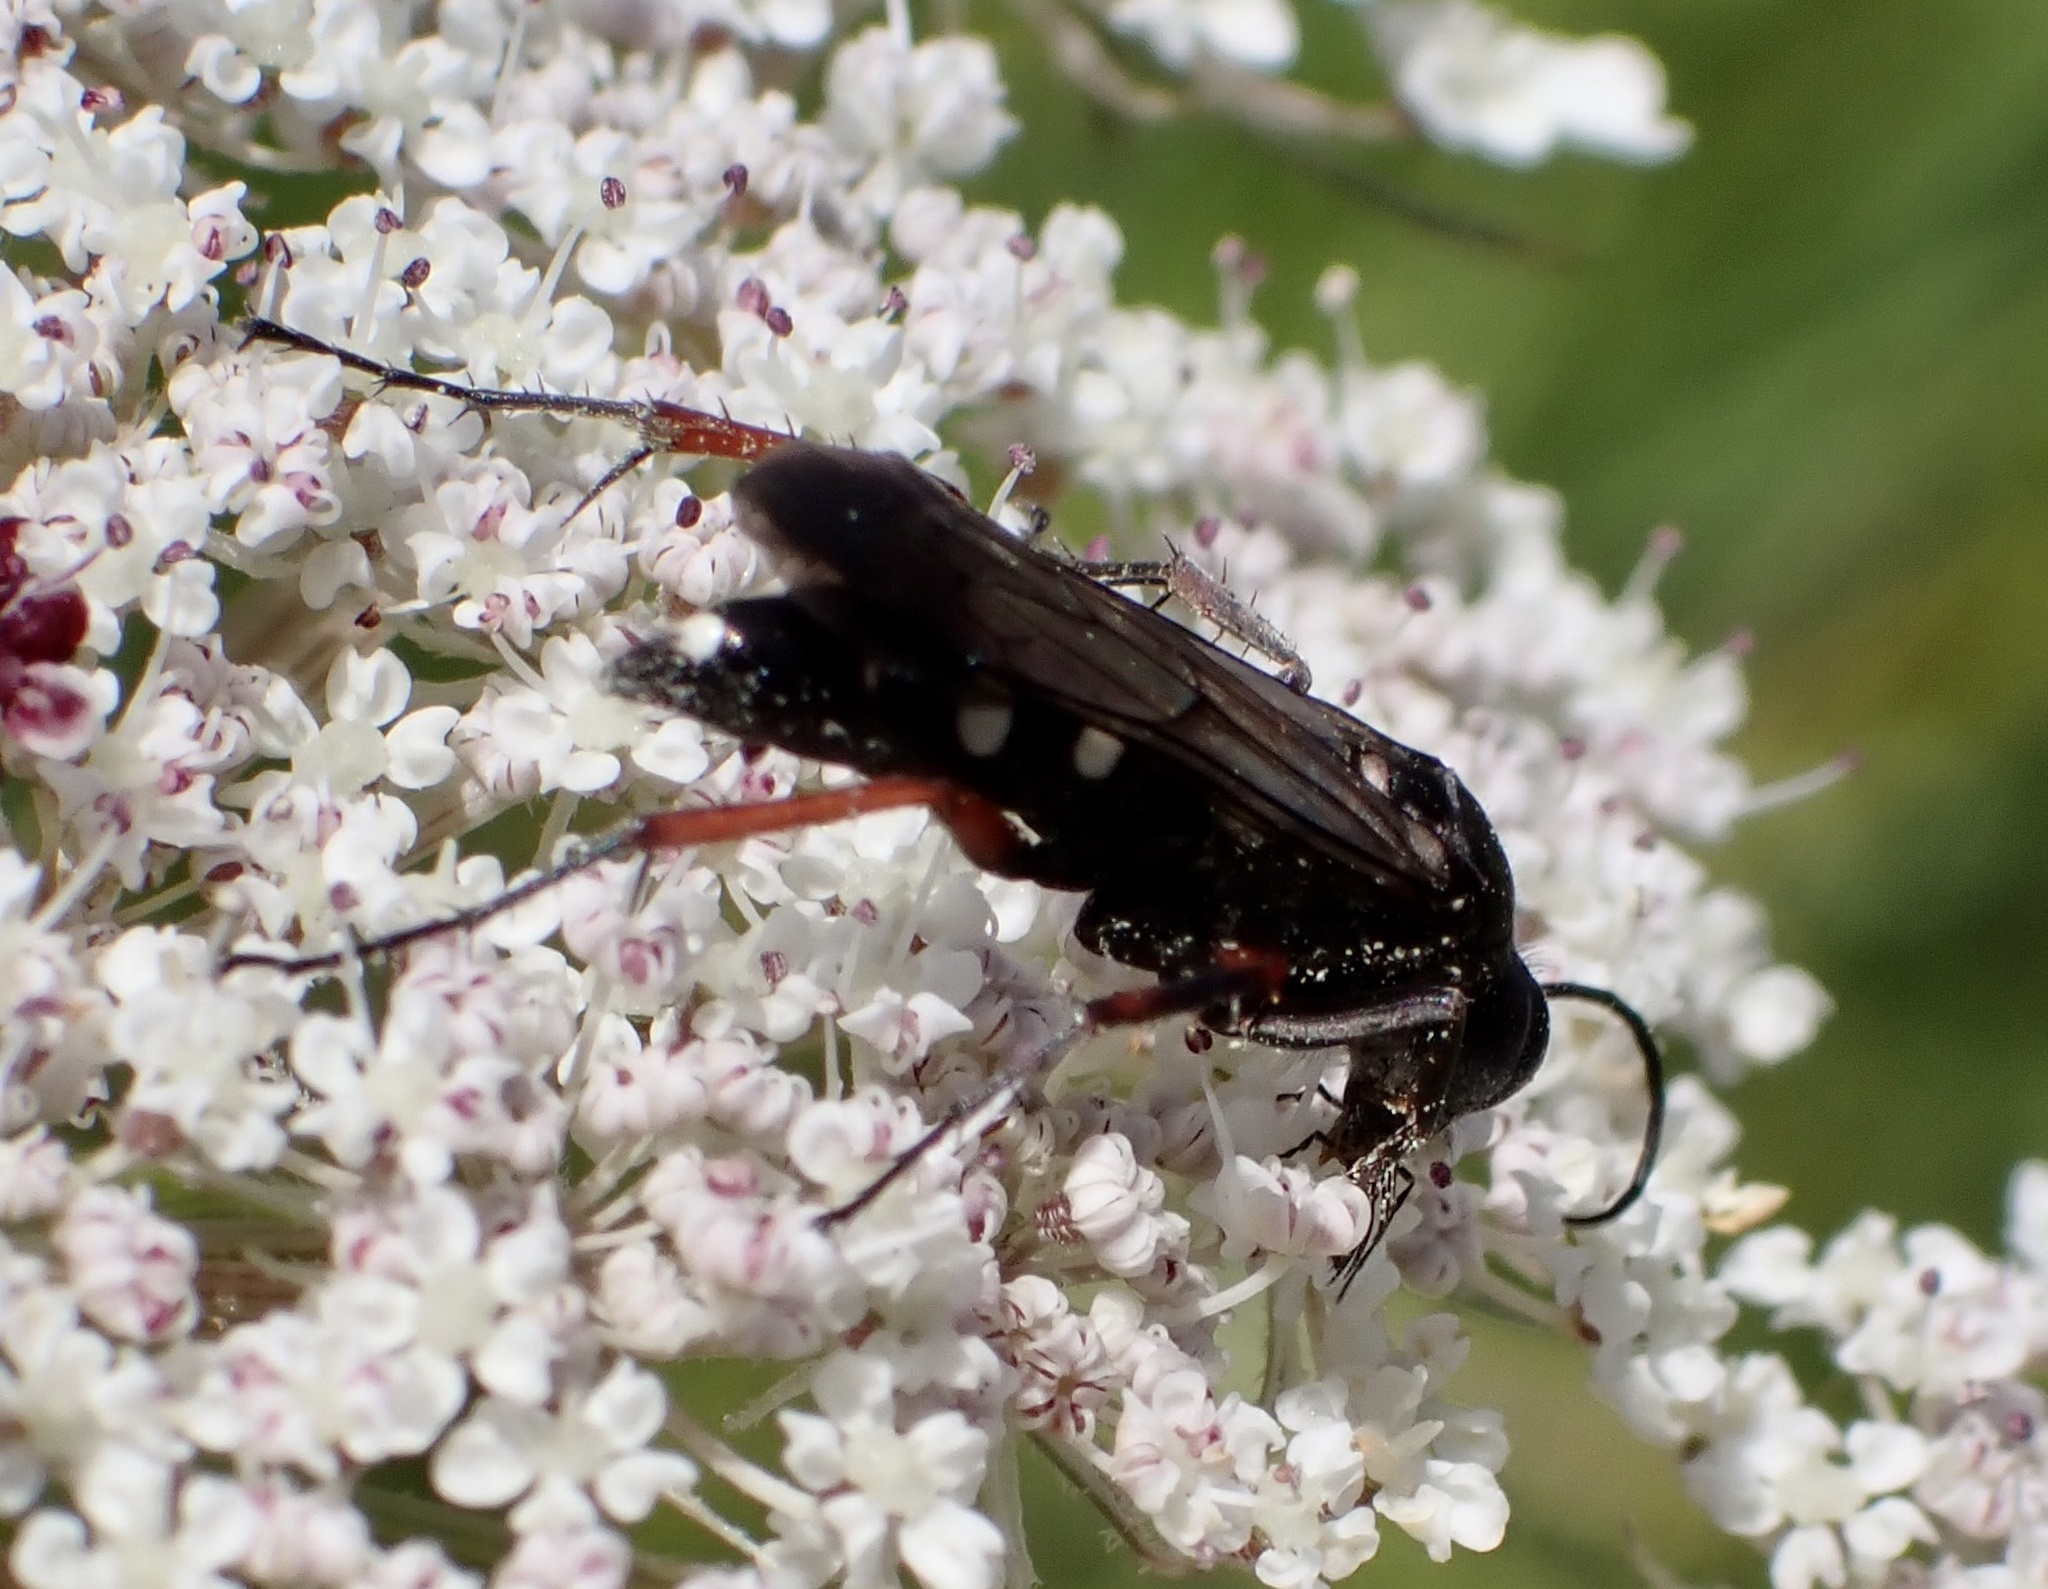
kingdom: Animalia
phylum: Arthropoda
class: Insecta
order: Hymenoptera
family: Pompilidae
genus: Episyron
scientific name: Episyron rufipes
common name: Red legged spider wasp
